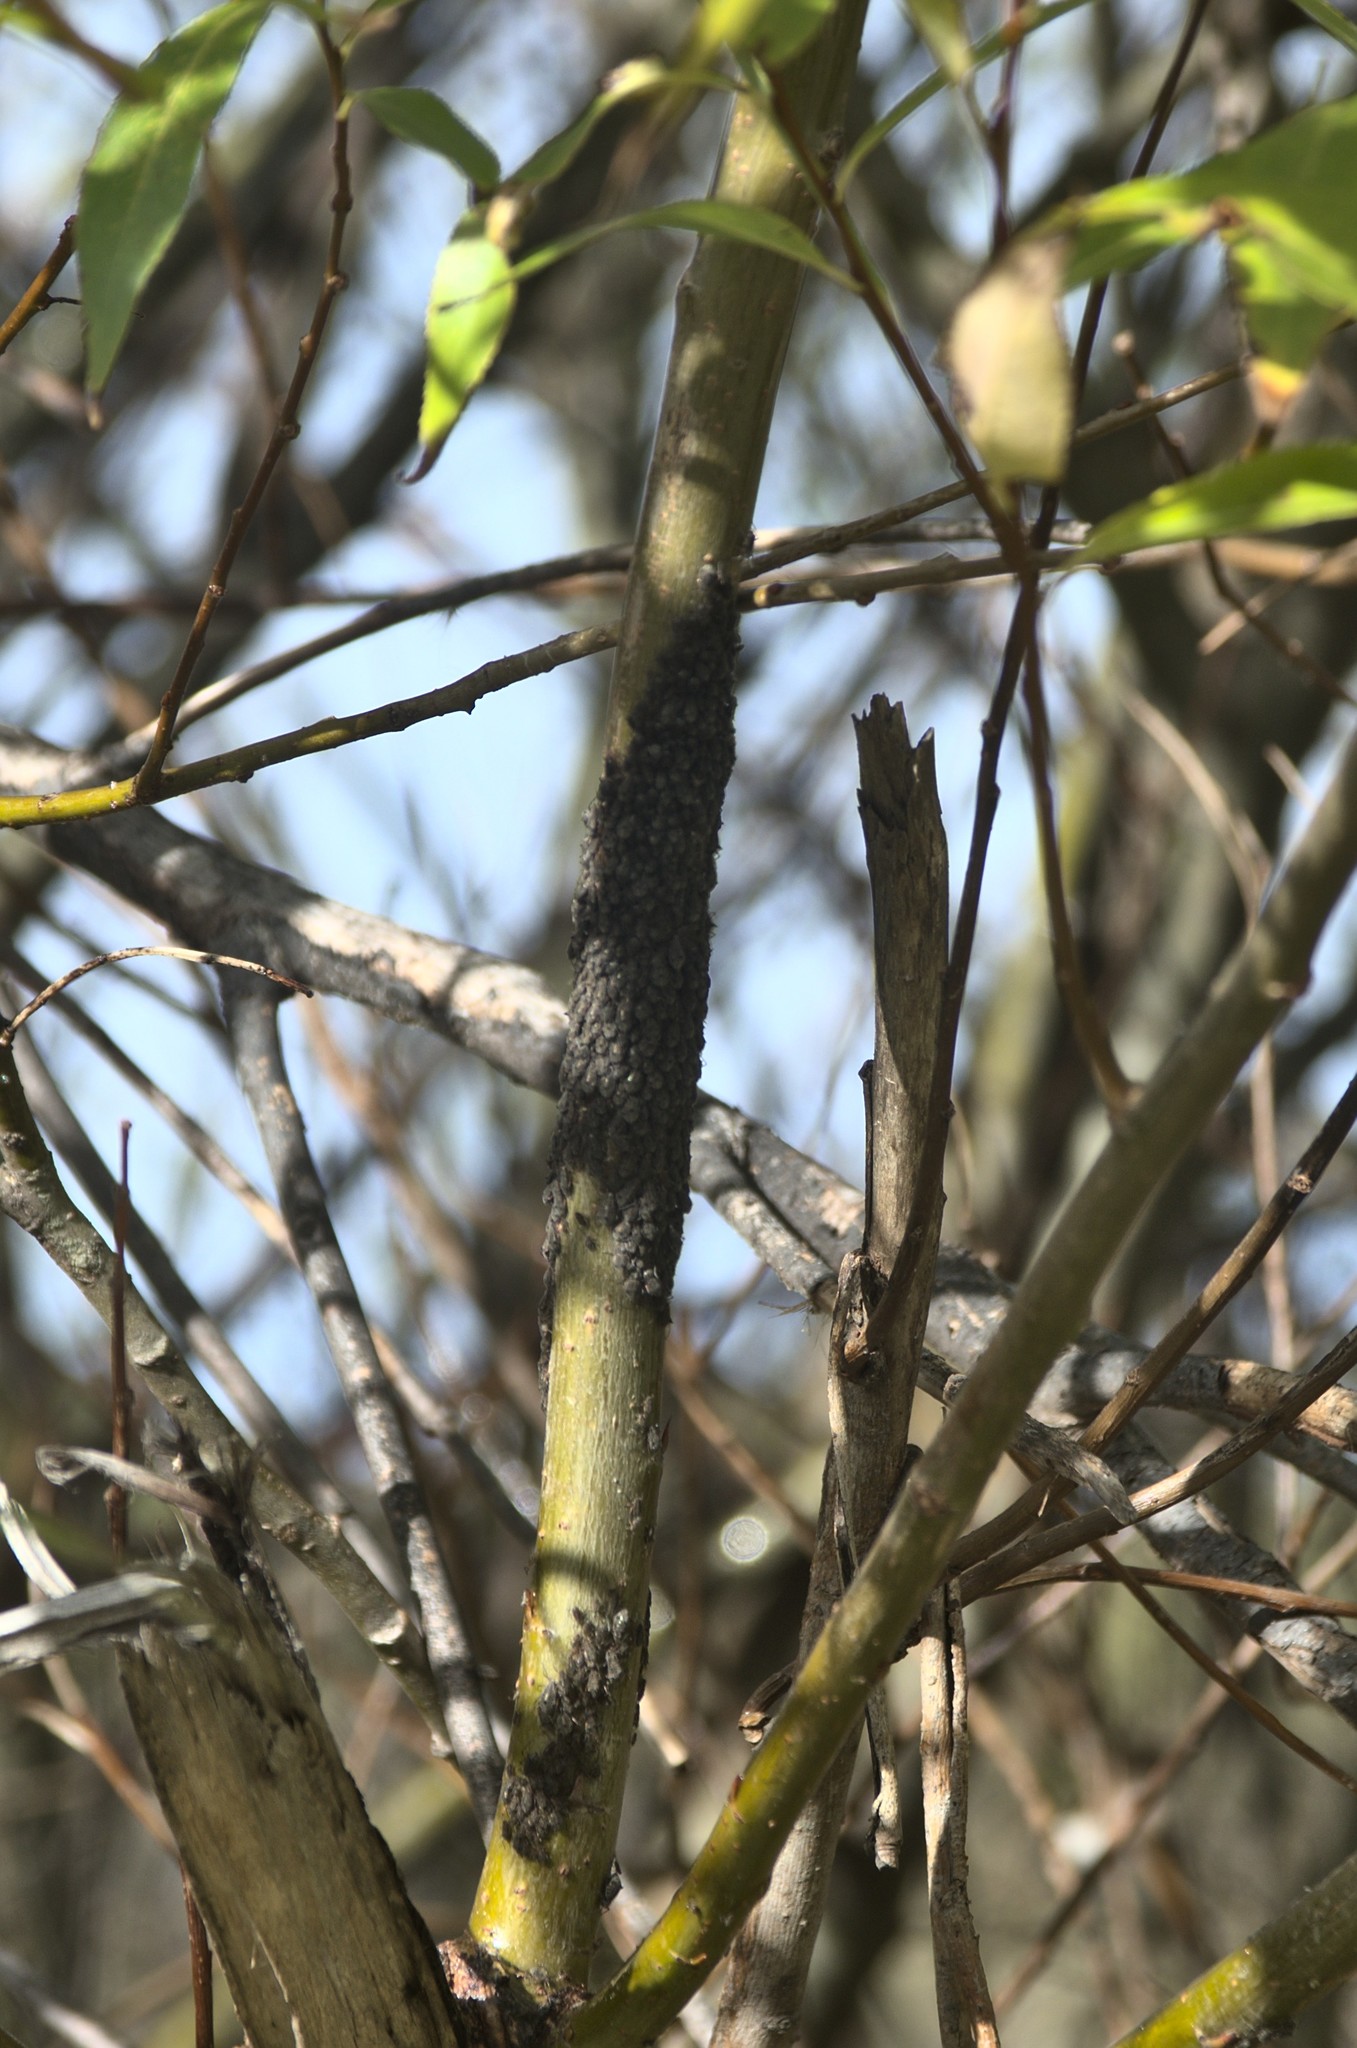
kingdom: Animalia
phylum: Arthropoda
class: Insecta
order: Hemiptera
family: Aphididae
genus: Tuberolachnus
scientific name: Tuberolachnus salignus
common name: Giant willow aphid
